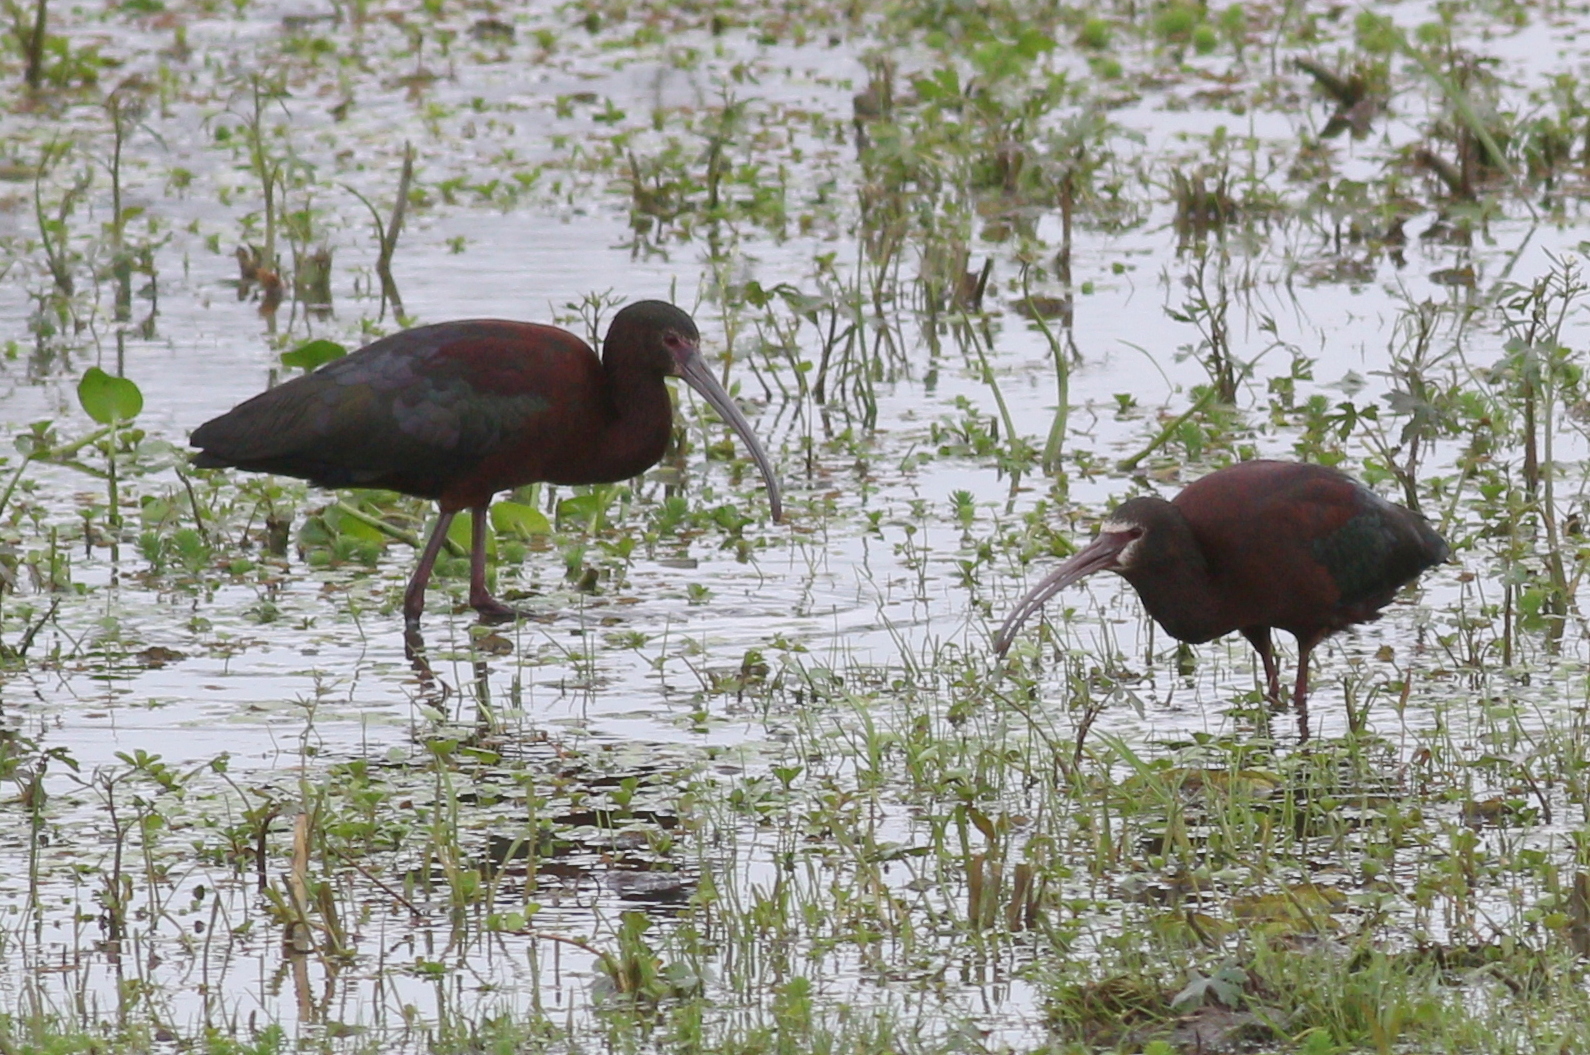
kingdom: Animalia
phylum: Chordata
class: Aves
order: Pelecaniformes
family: Threskiornithidae
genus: Plegadis
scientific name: Plegadis chihi
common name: White-faced ibis
